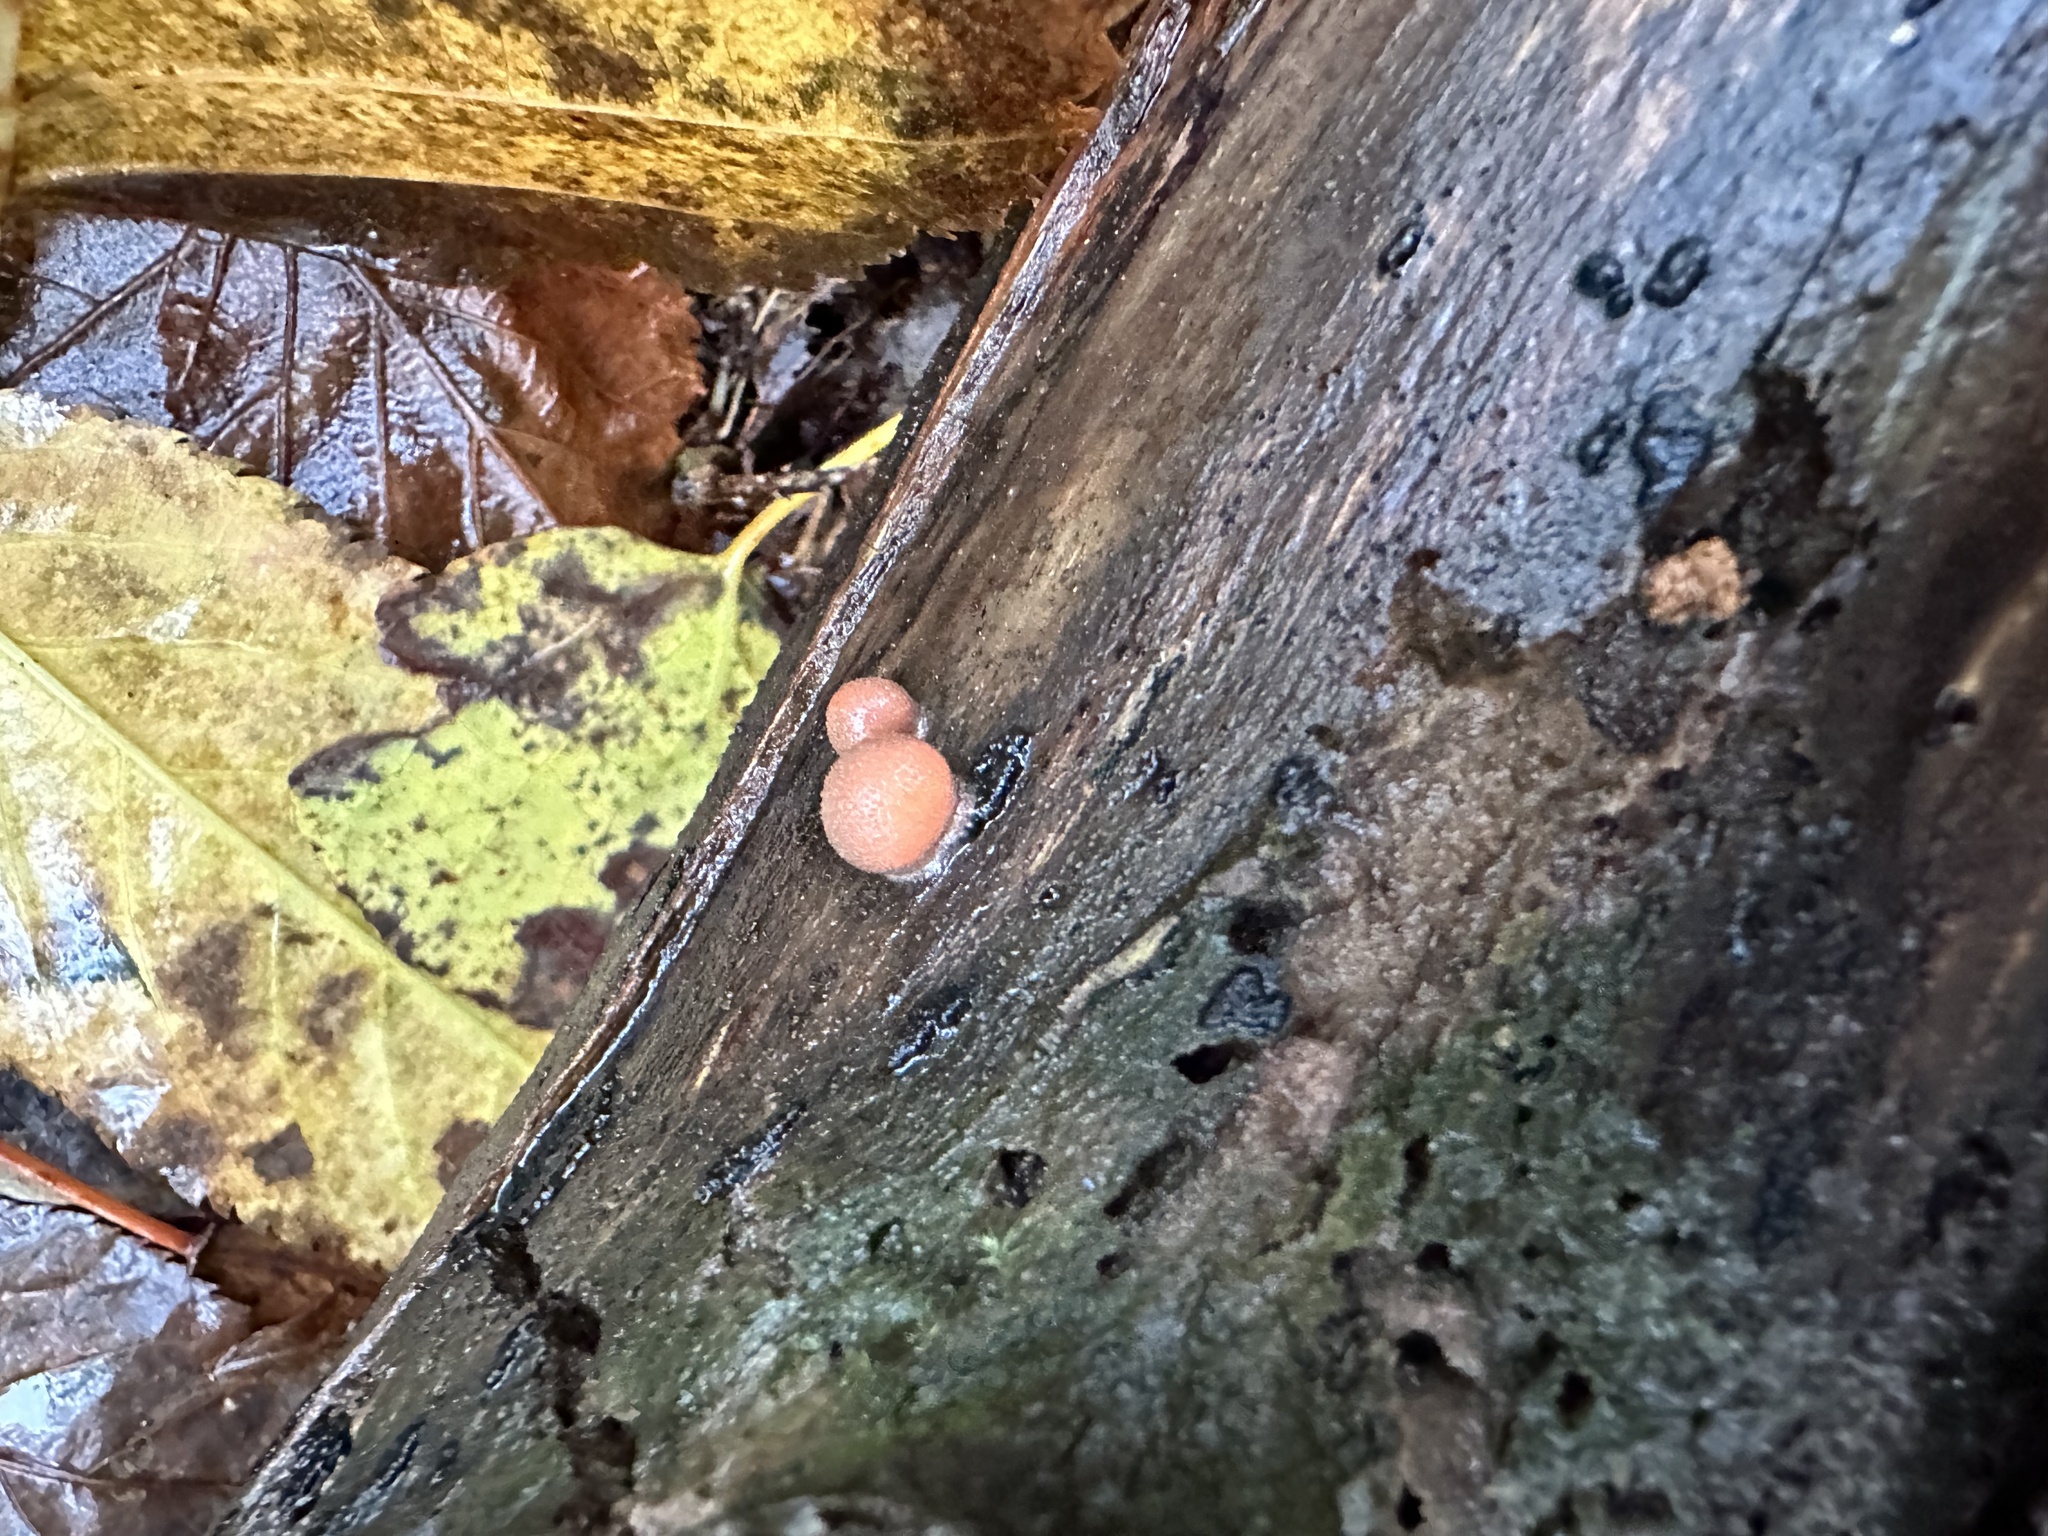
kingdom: Protozoa
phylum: Mycetozoa
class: Myxomycetes
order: Cribrariales
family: Tubiferaceae
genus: Lycogala
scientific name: Lycogala epidendrum
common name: Wolf's milk
